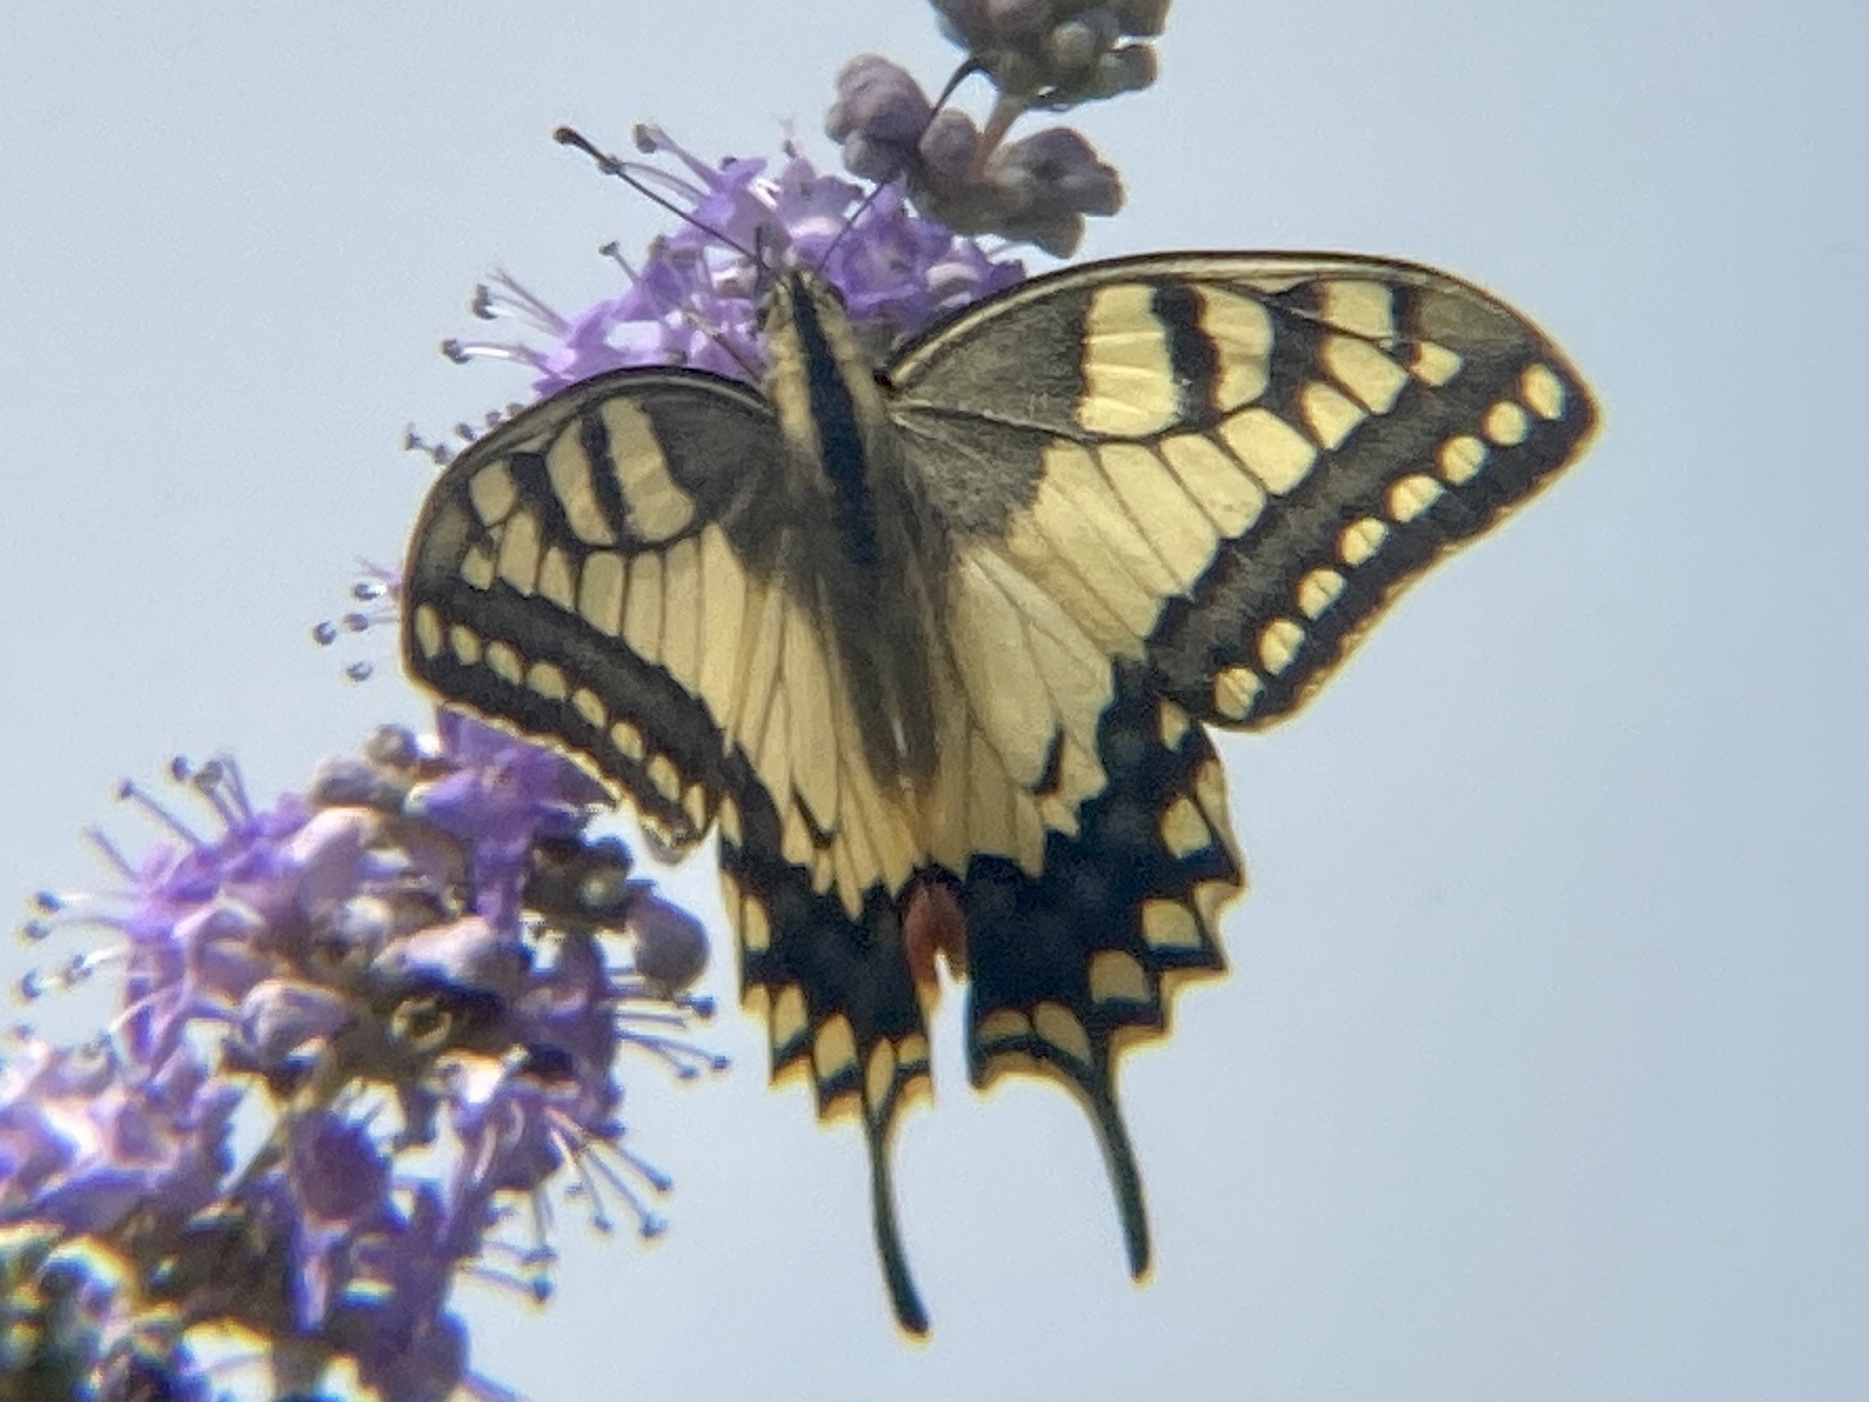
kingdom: Animalia
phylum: Arthropoda
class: Insecta
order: Lepidoptera
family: Papilionidae
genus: Papilio
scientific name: Papilio machaon
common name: Swallowtail
